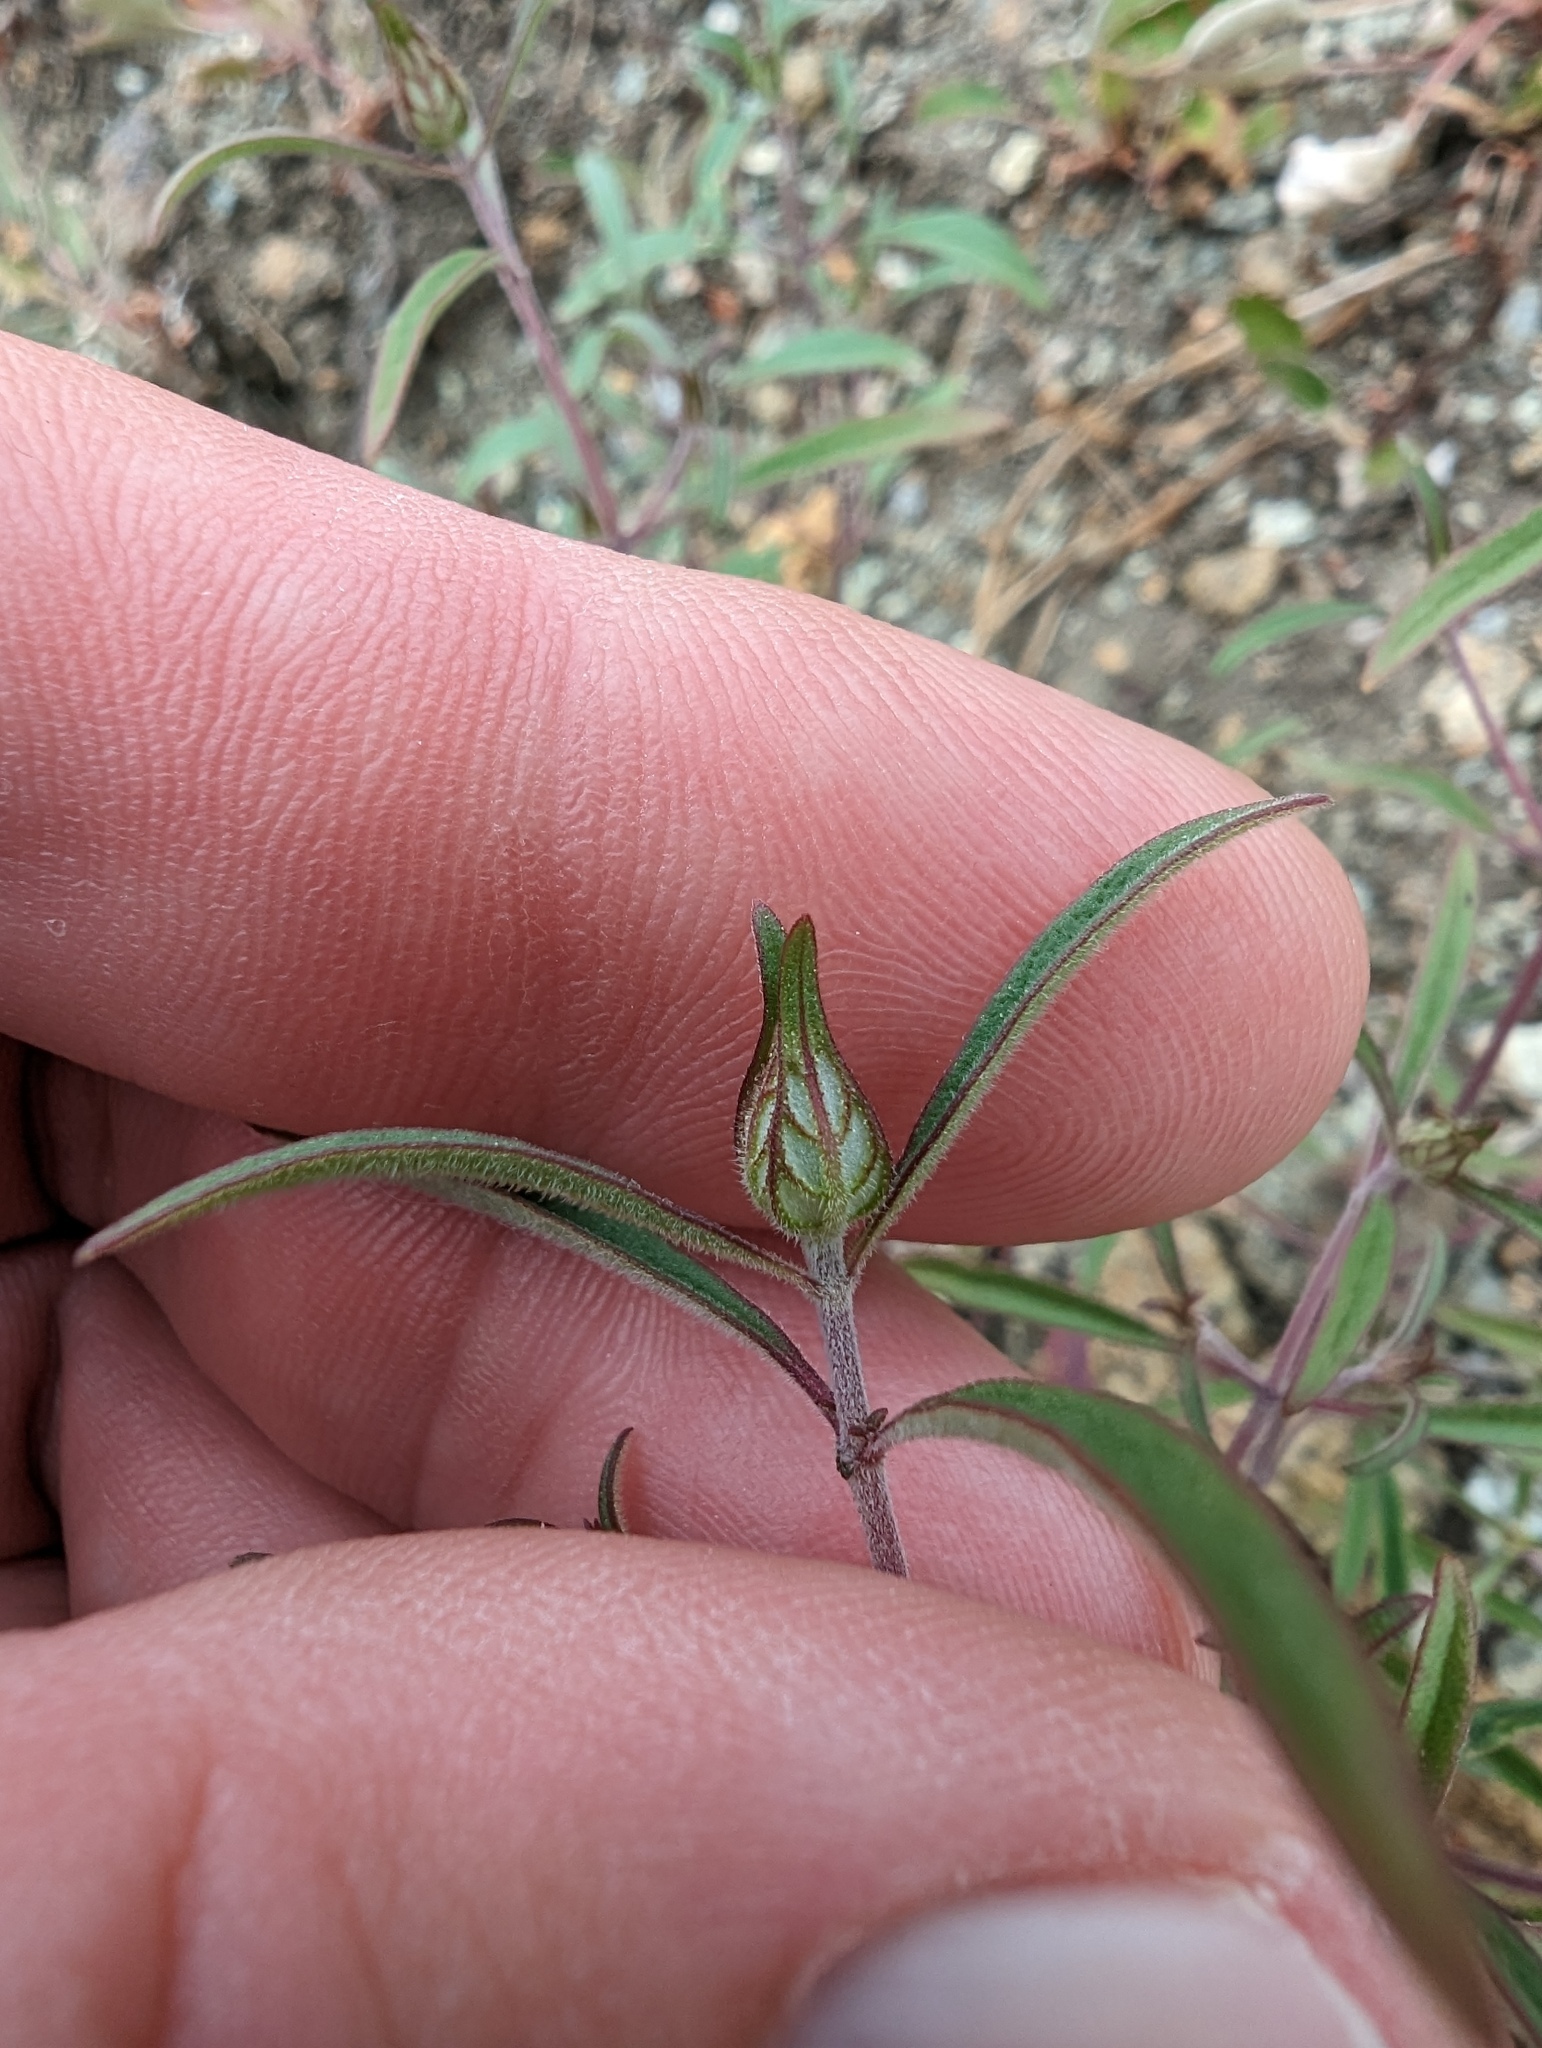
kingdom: Plantae
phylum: Tracheophyta
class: Magnoliopsida
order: Lamiales
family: Lamiaceae
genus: Monardella
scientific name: Monardella douglasii
